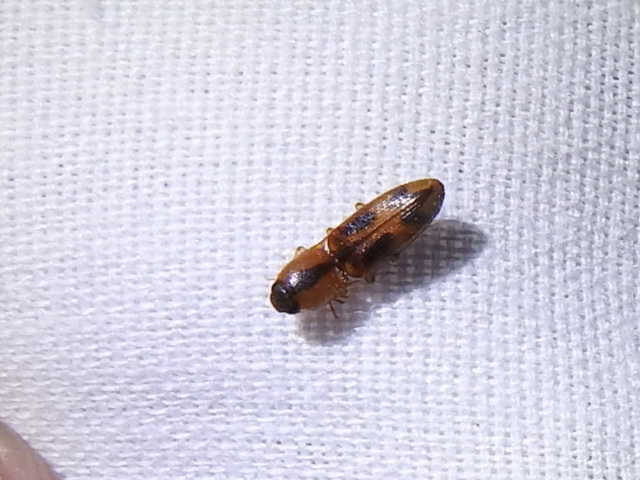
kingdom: Animalia
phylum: Arthropoda
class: Insecta
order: Coleoptera
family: Elateridae
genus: Aeolus
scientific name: Aeolus mellillus
